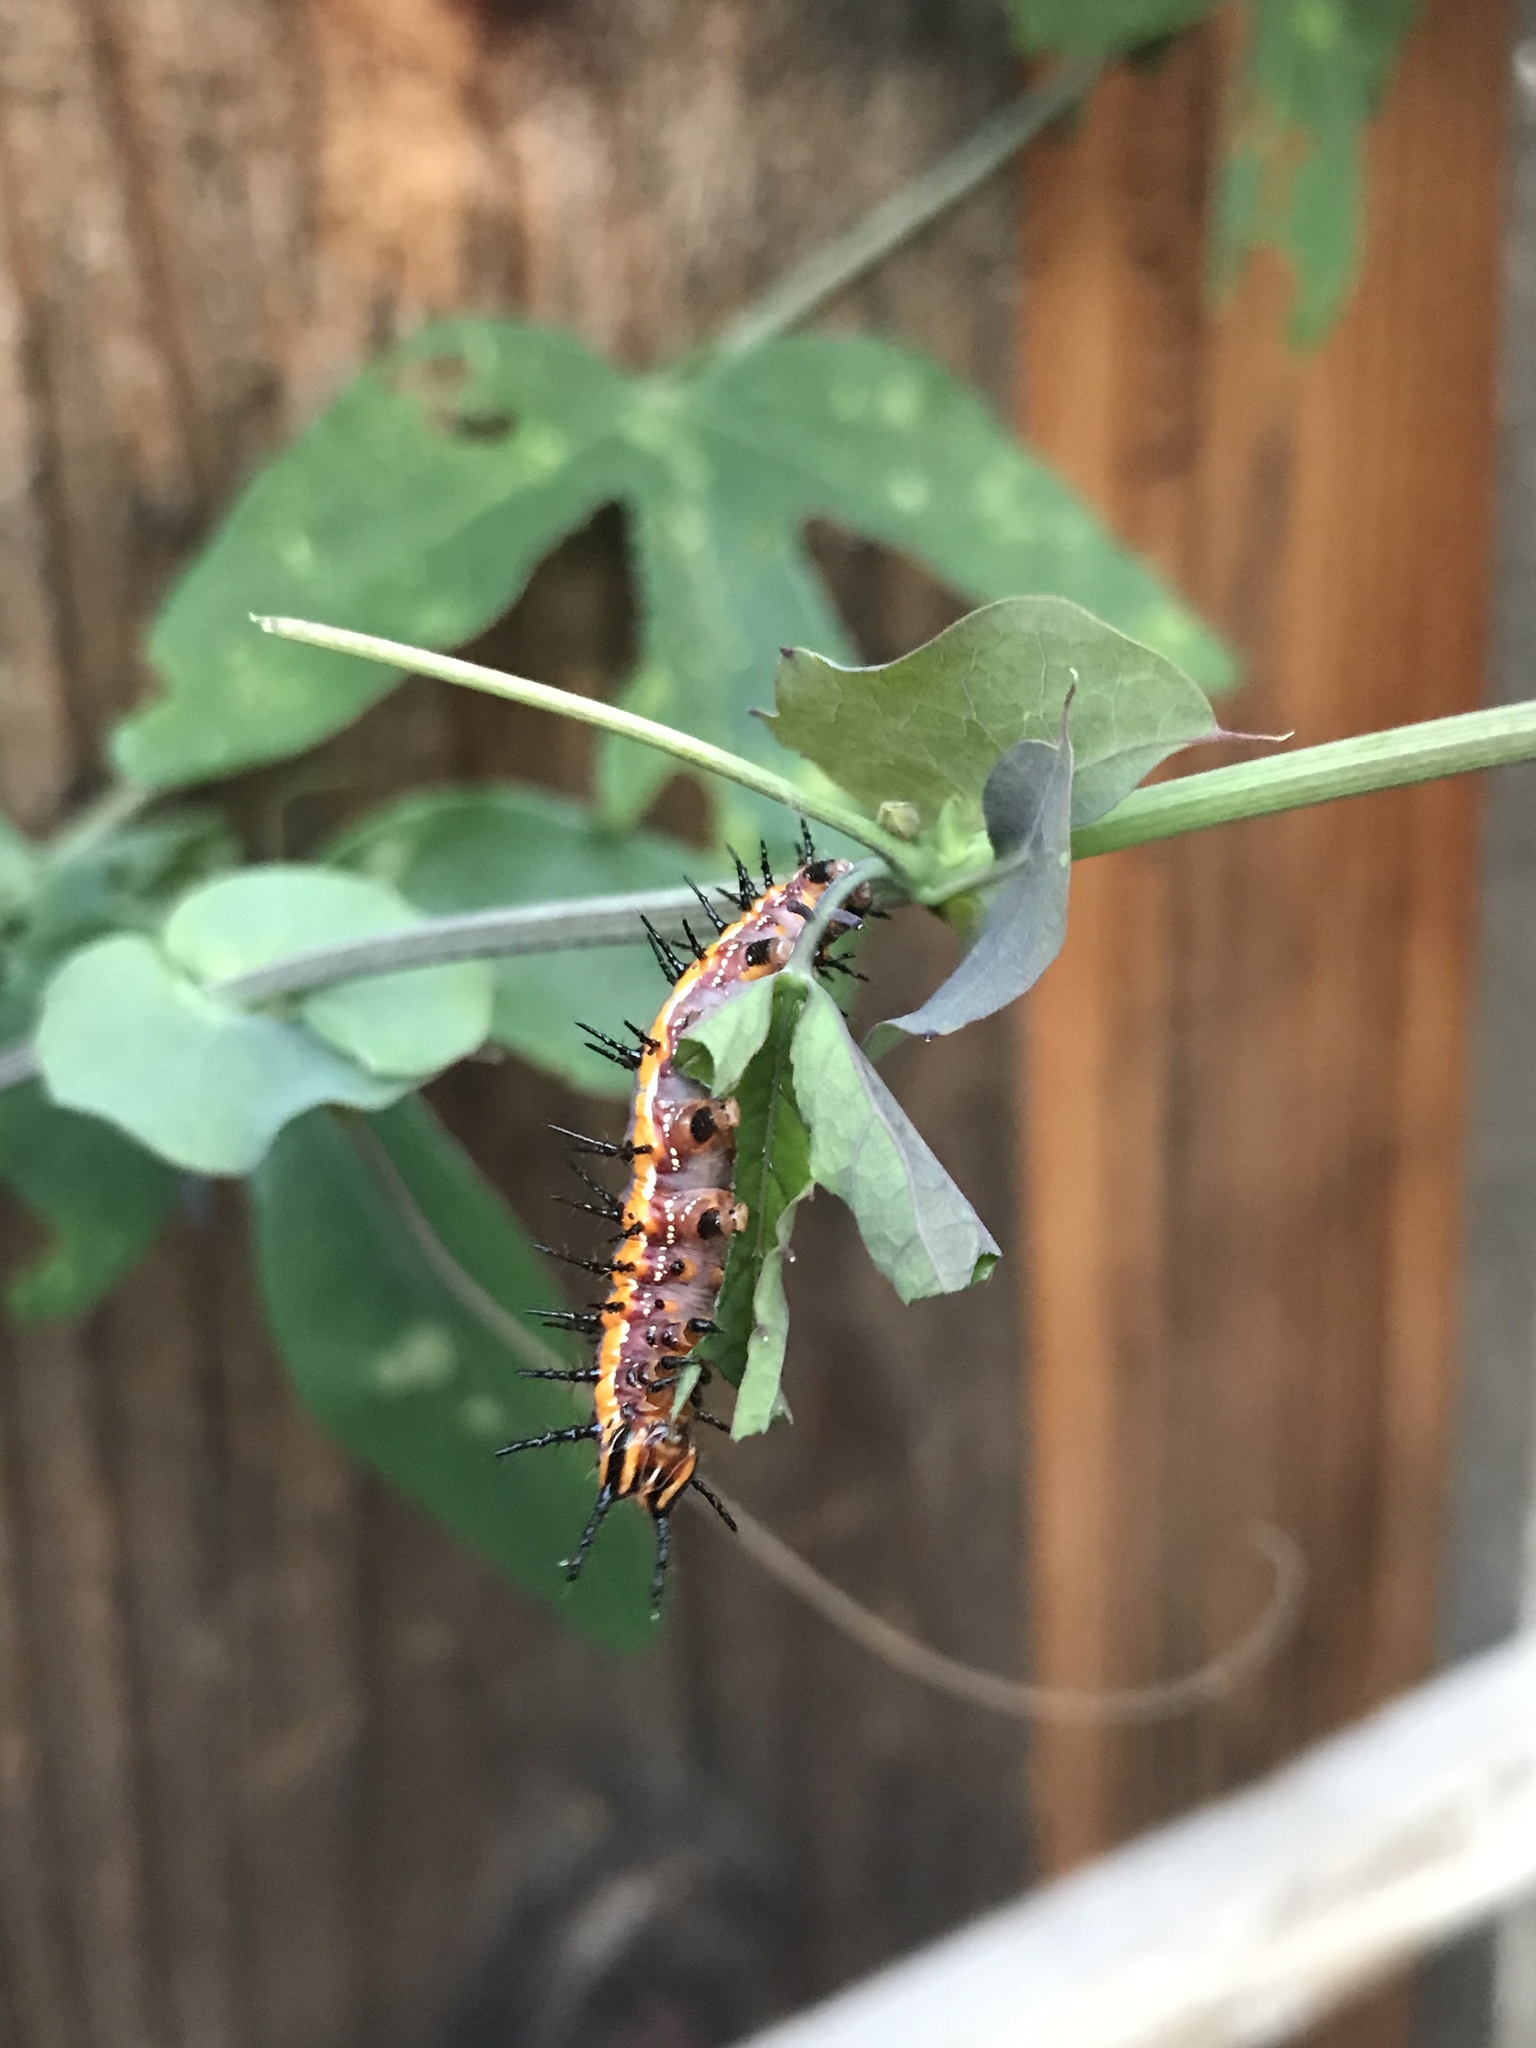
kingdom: Animalia
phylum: Arthropoda
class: Insecta
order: Lepidoptera
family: Nymphalidae
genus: Dione
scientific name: Dione vanillae
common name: Gulf fritillary
